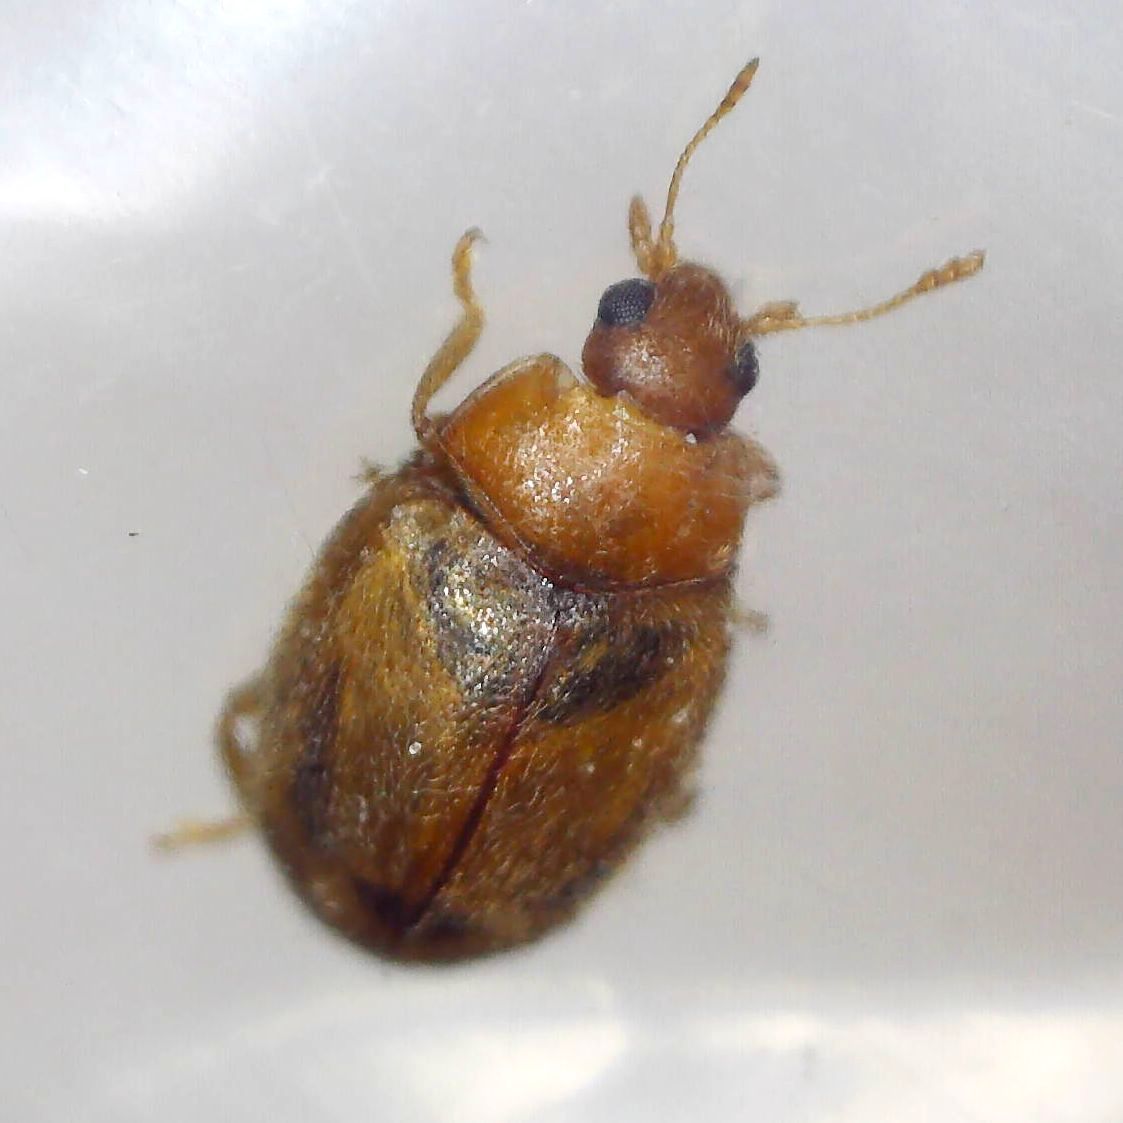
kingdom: Animalia
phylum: Arthropoda
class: Insecta
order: Coleoptera
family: Coccinellidae
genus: Rhyzobius
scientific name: Rhyzobius litura
